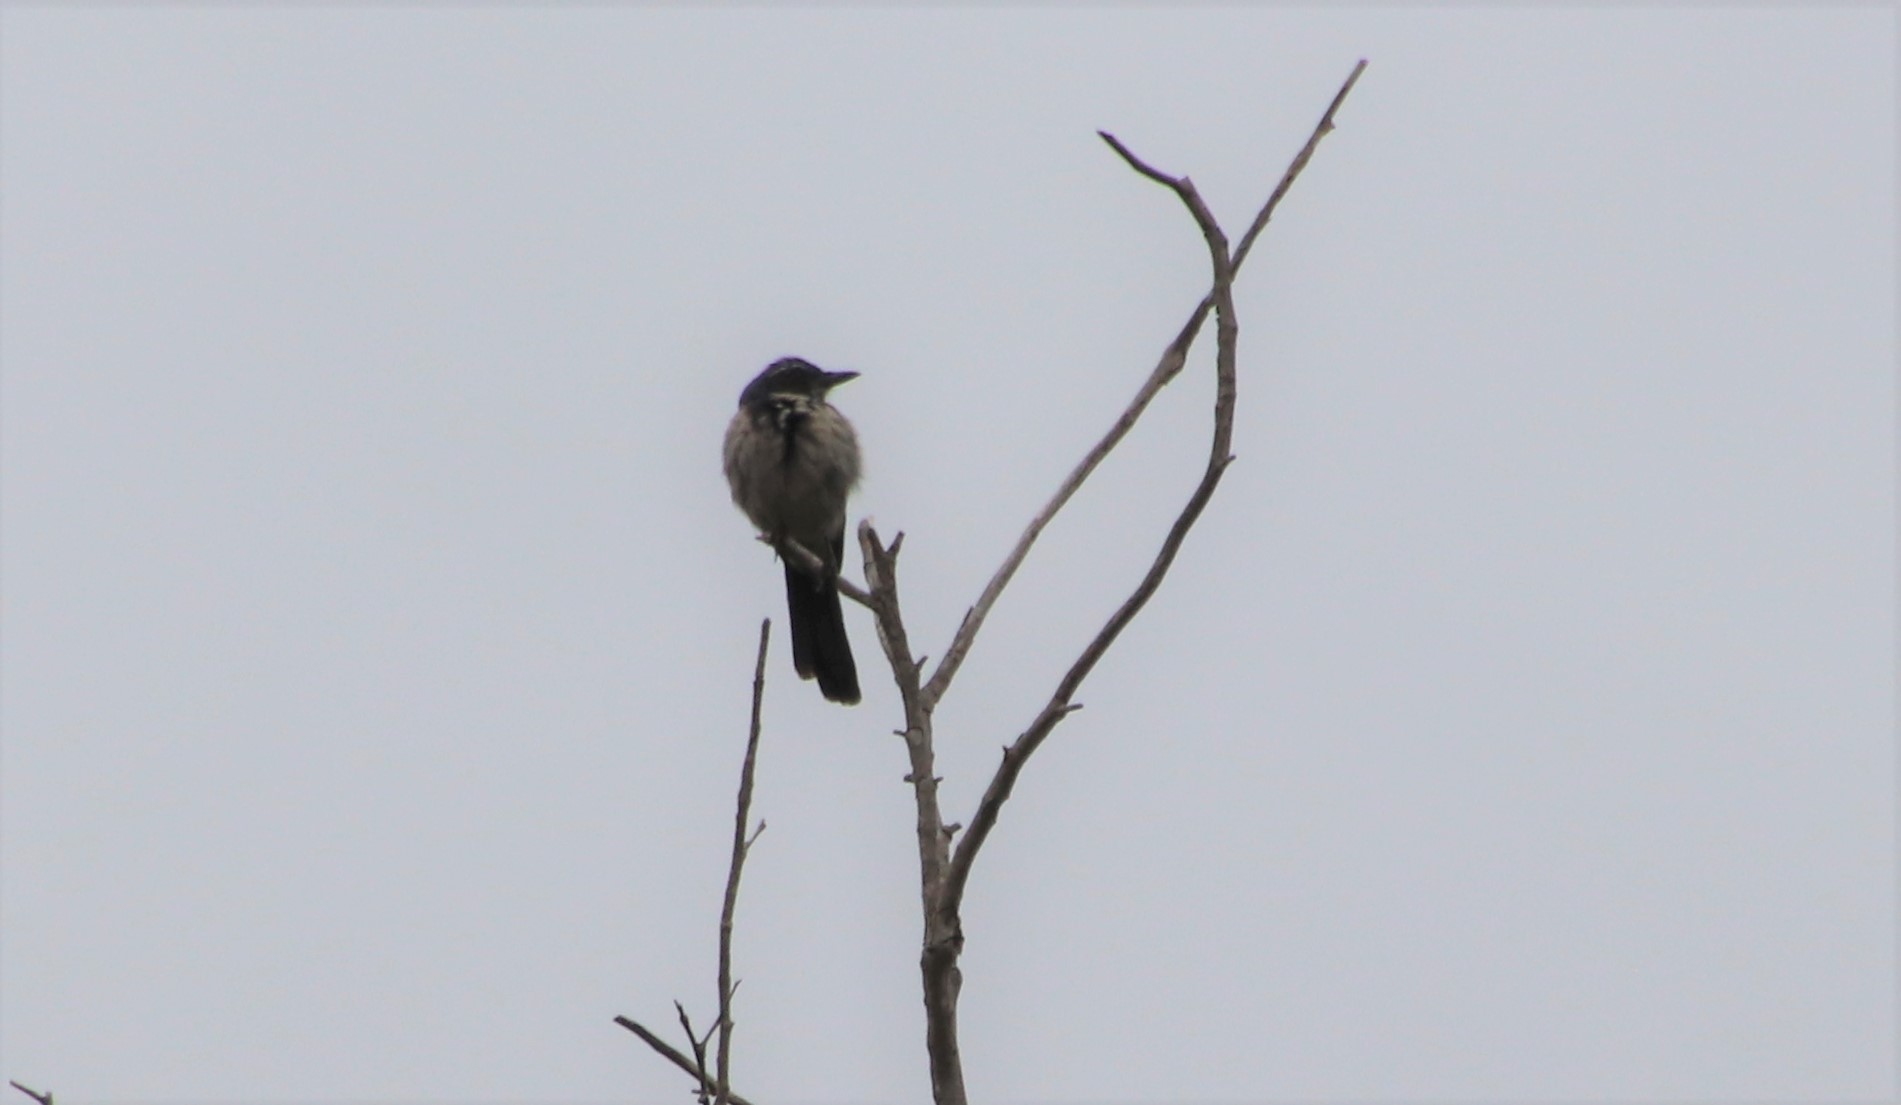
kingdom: Animalia
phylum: Chordata
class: Aves
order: Passeriformes
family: Corvidae
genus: Aphelocoma
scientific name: Aphelocoma californica
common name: California scrub-jay
